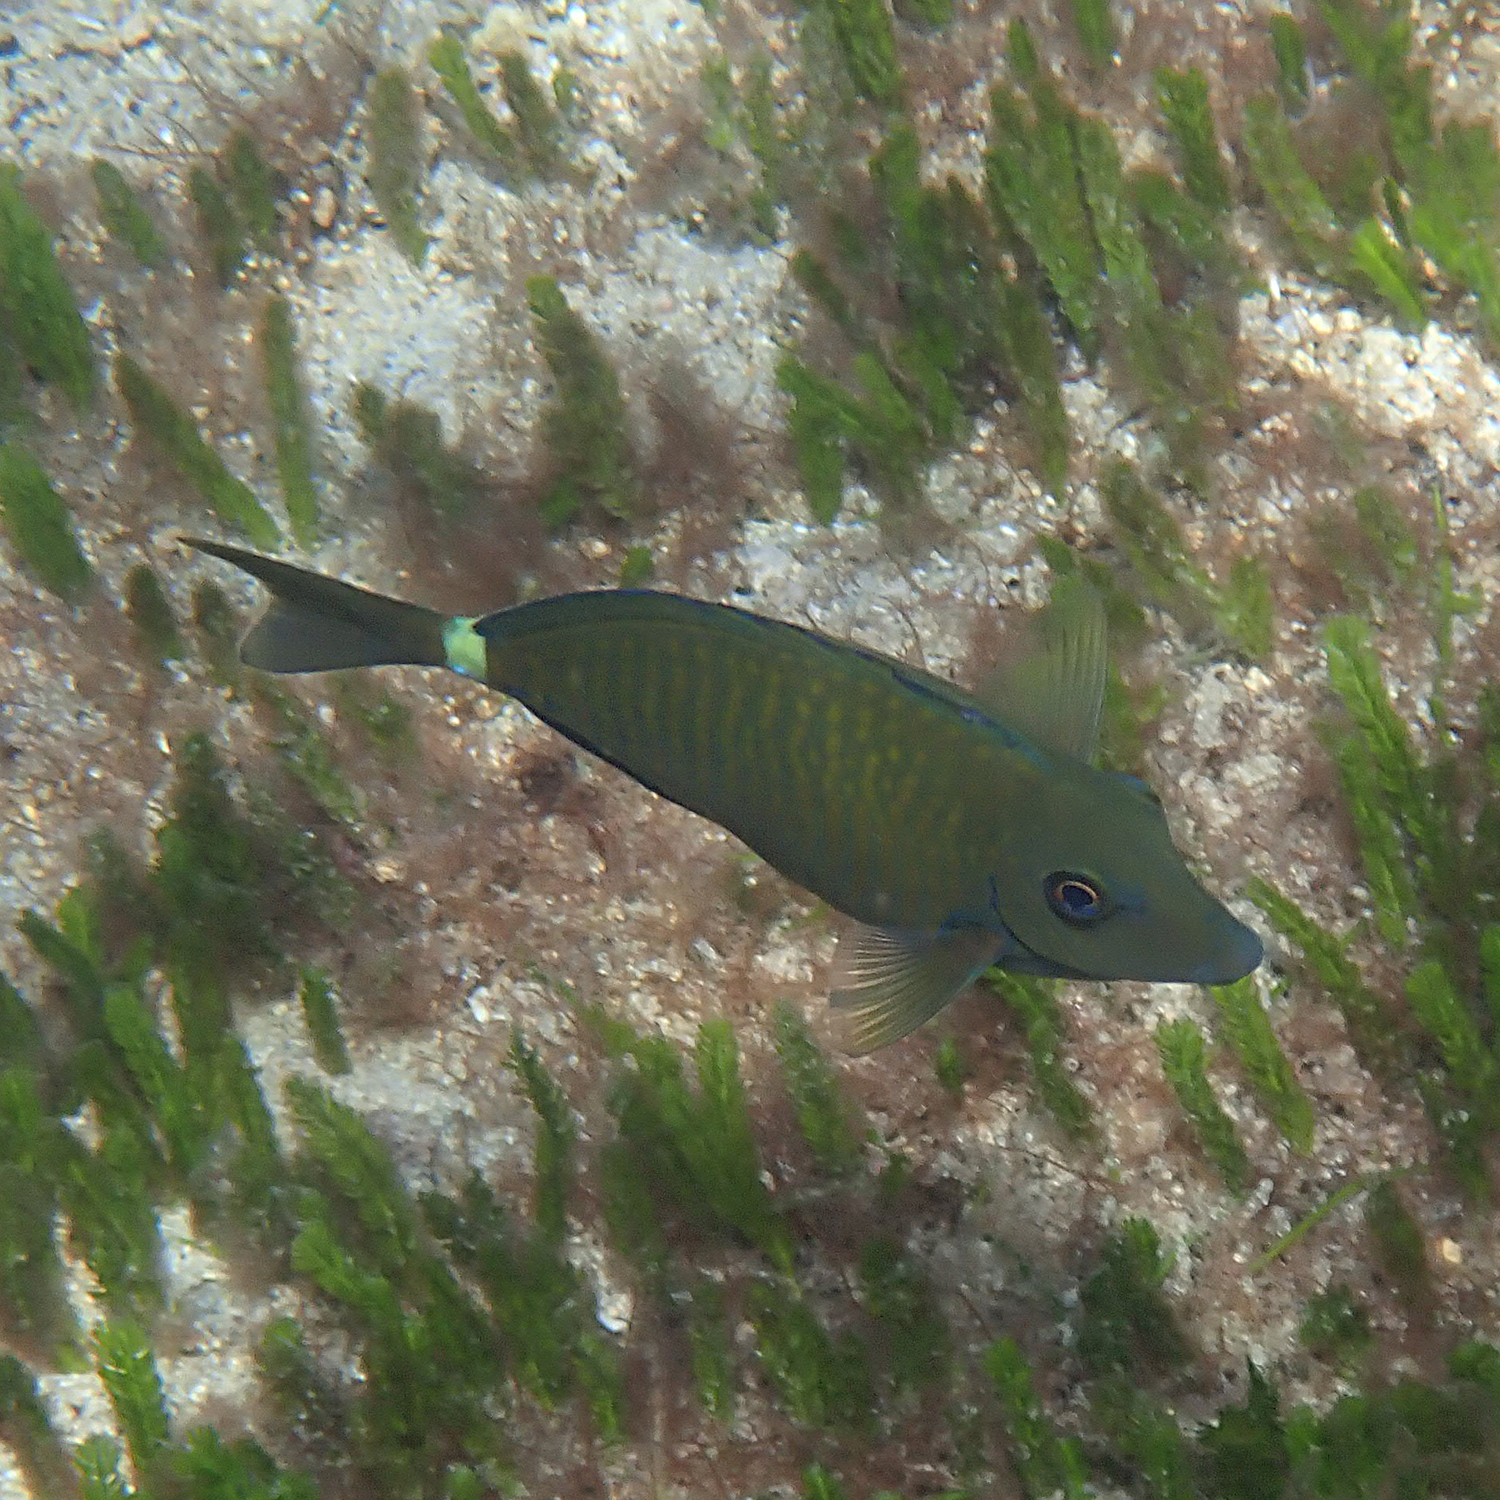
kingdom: Animalia
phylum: Chordata
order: Perciformes
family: Acanthuridae
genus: Prionurus
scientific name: Prionurus maculatus
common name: Yellowspotted sawtail
